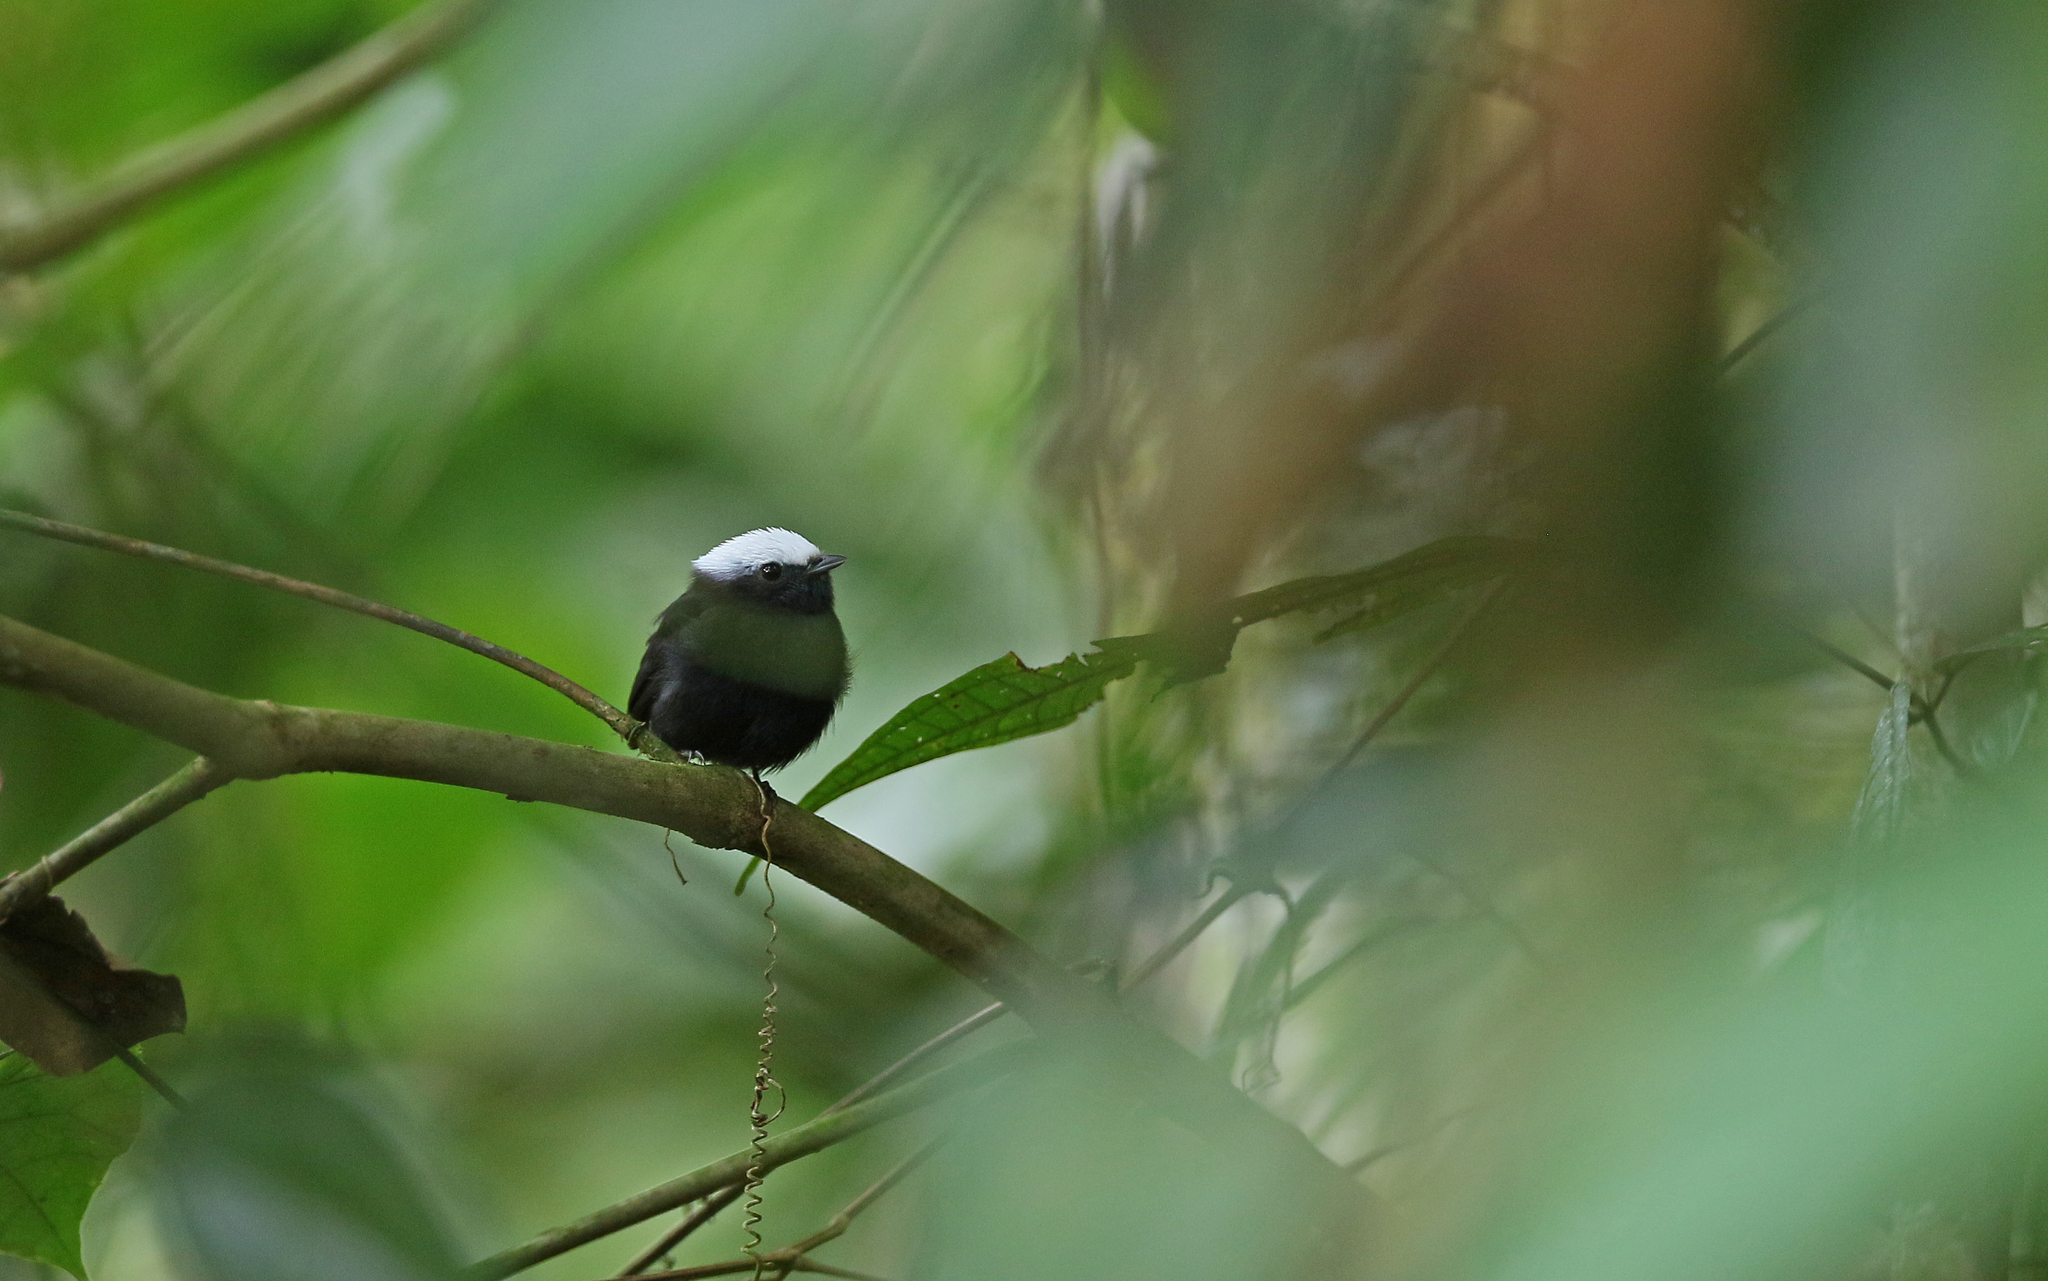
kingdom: Animalia
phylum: Chordata
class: Aves
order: Passeriformes
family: Pipridae
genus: Lepidothrix
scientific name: Lepidothrix isidorei
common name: Blue-rumped manakin
